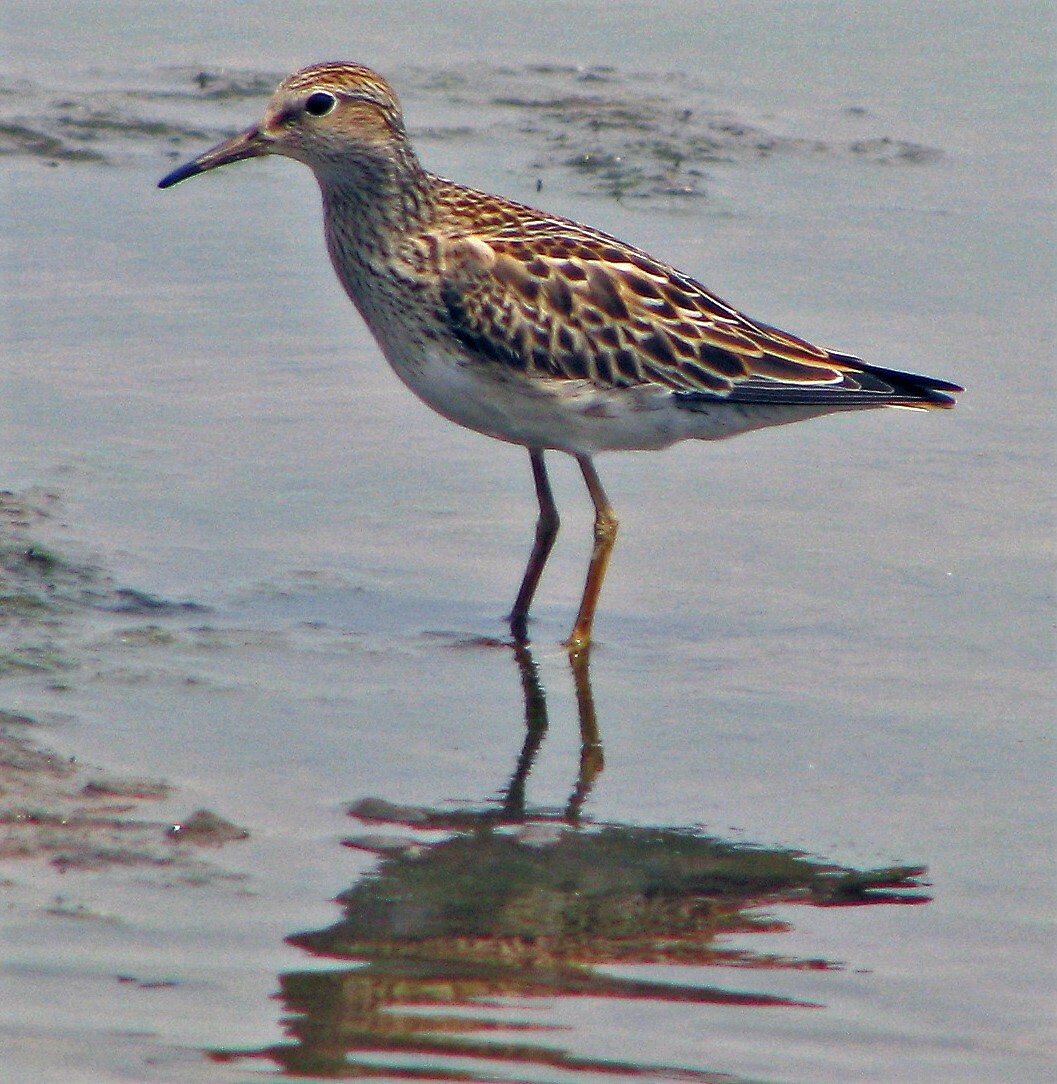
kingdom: Animalia
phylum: Chordata
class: Aves
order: Charadriiformes
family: Scolopacidae
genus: Calidris
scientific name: Calidris melanotos
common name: Pectoral sandpiper
